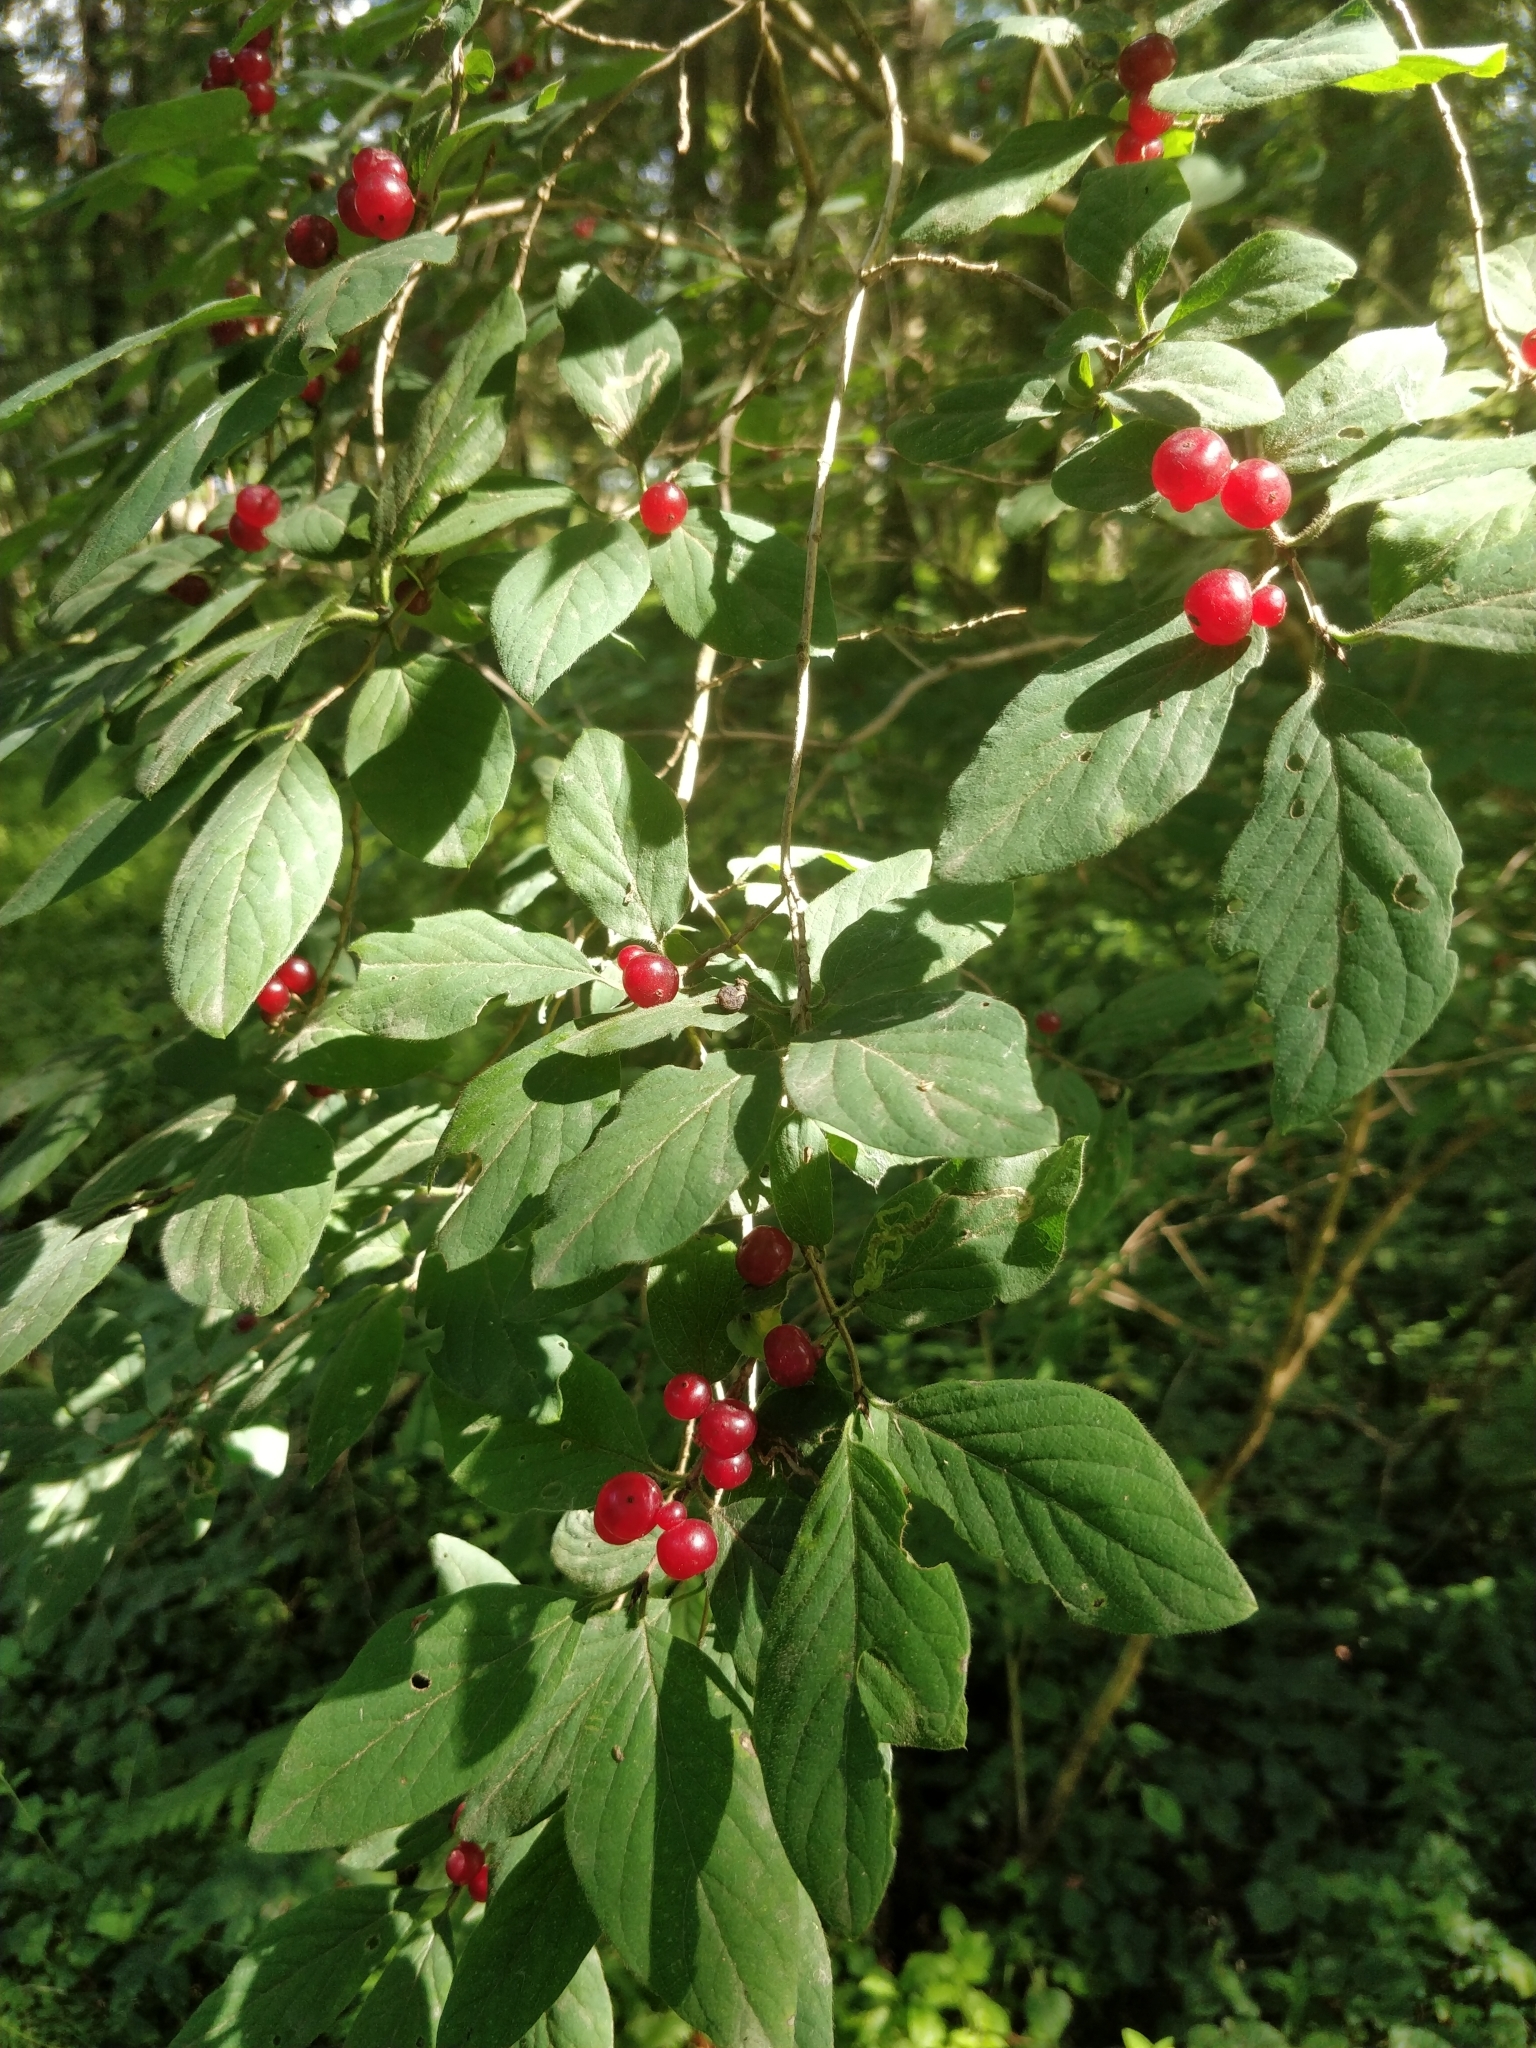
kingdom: Plantae
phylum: Tracheophyta
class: Magnoliopsida
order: Dipsacales
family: Caprifoliaceae
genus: Lonicera
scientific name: Lonicera xylosteum
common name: Fly honeysuckle
